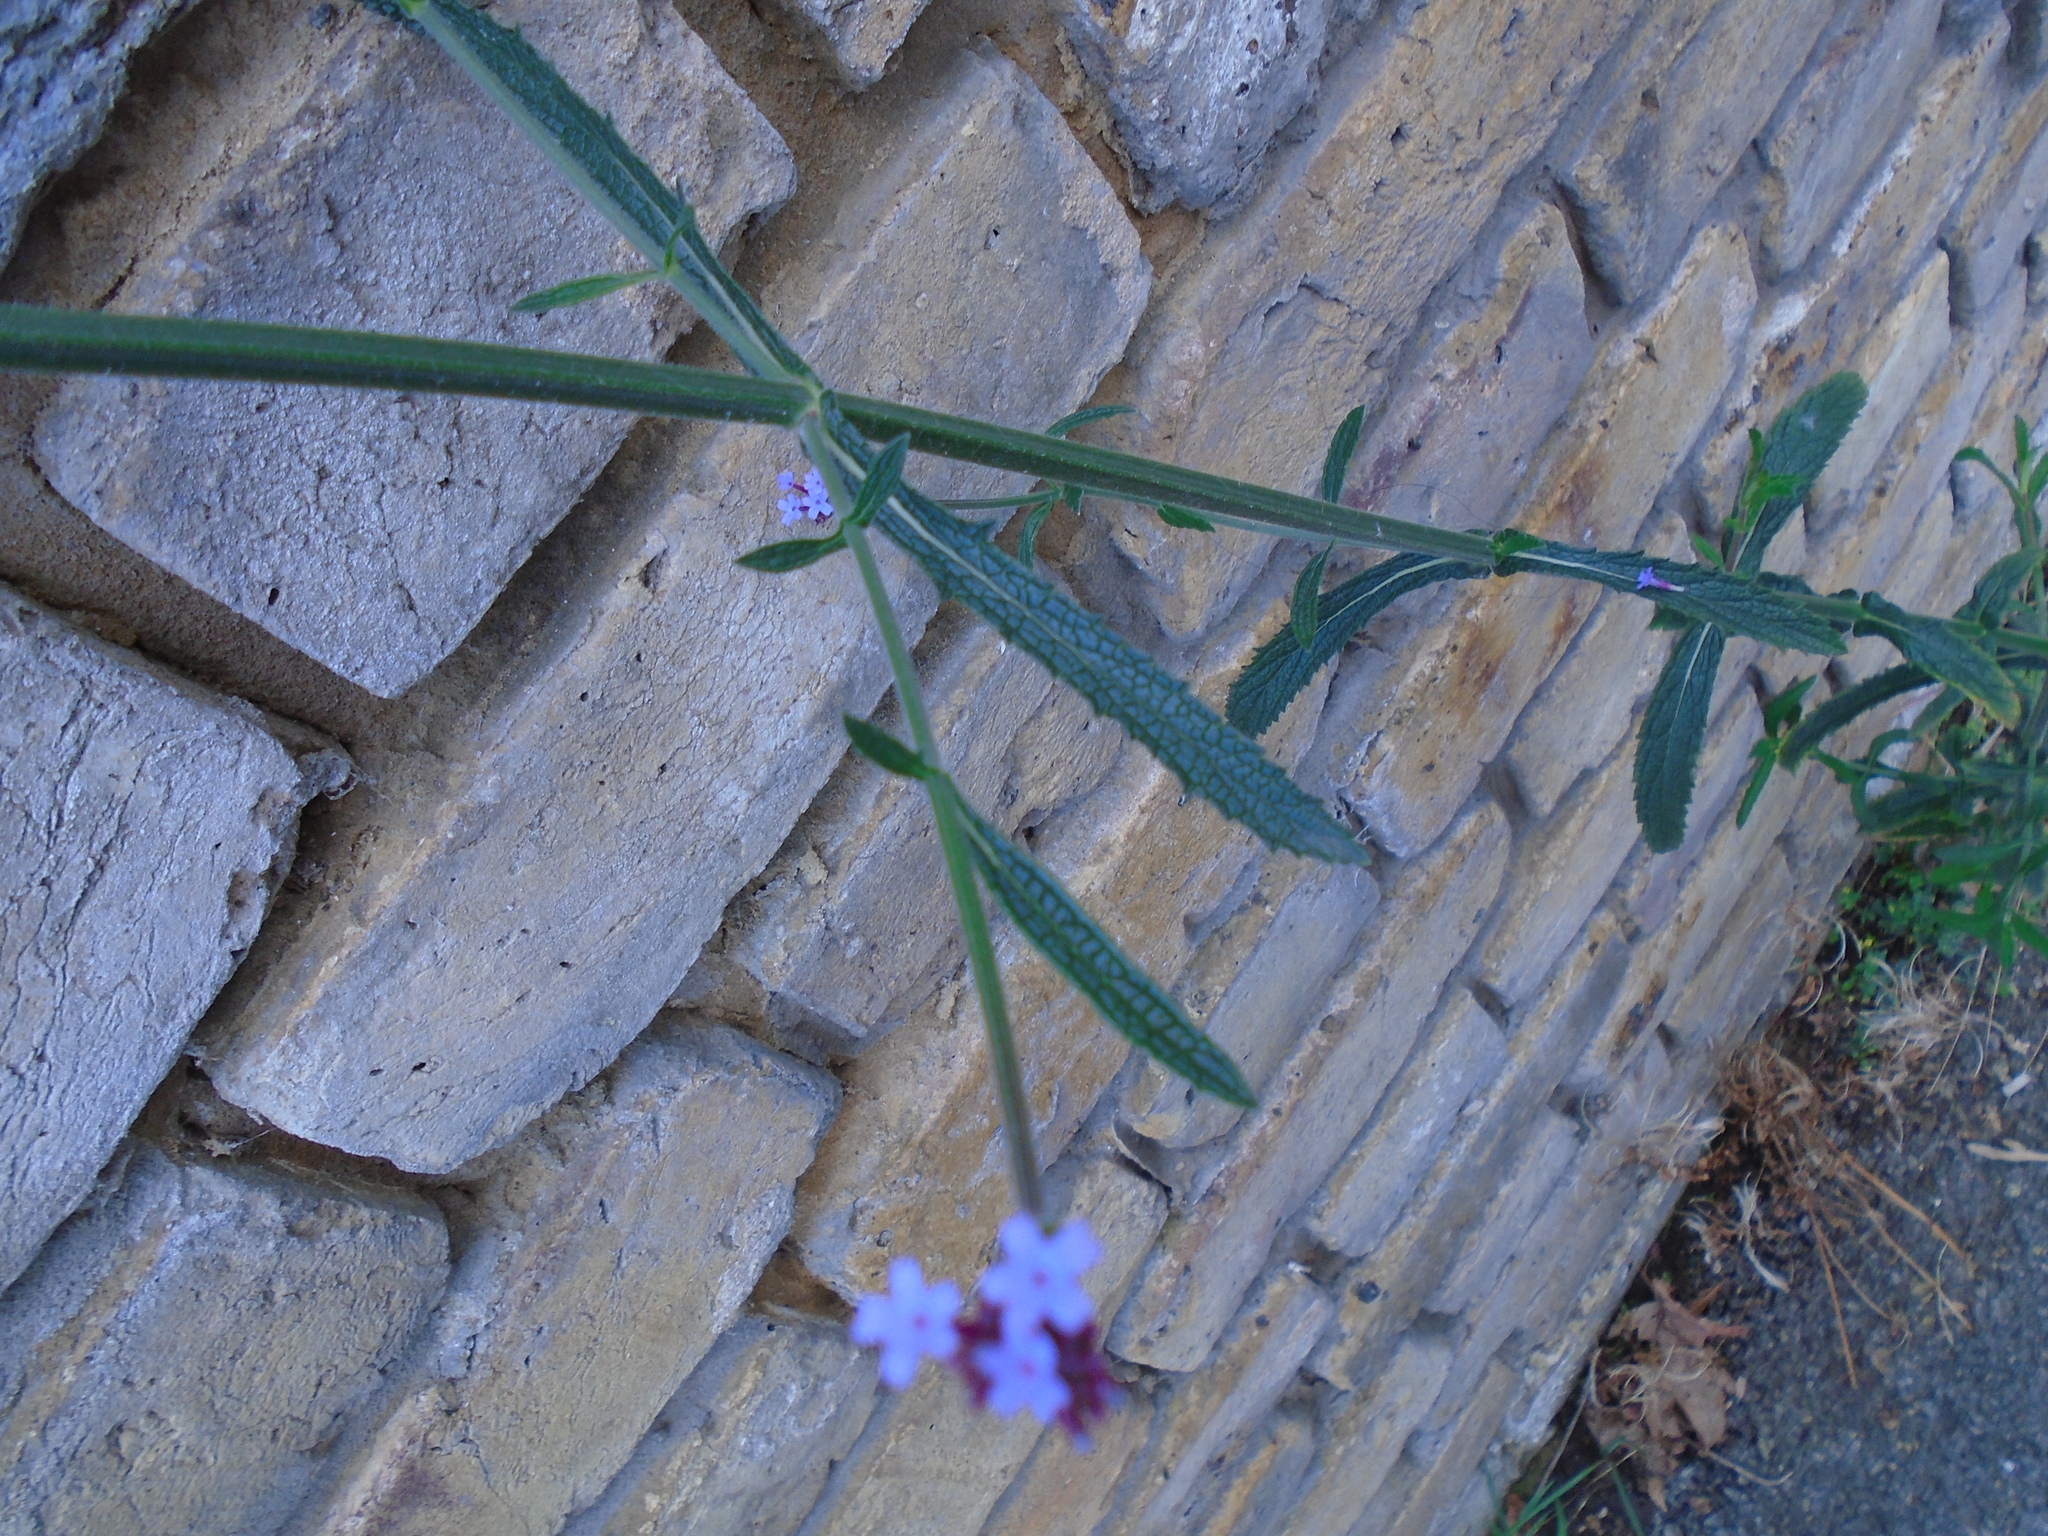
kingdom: Plantae
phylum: Tracheophyta
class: Magnoliopsida
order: Lamiales
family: Verbenaceae
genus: Verbena
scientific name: Verbena bonariensis
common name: Purpletop vervain
